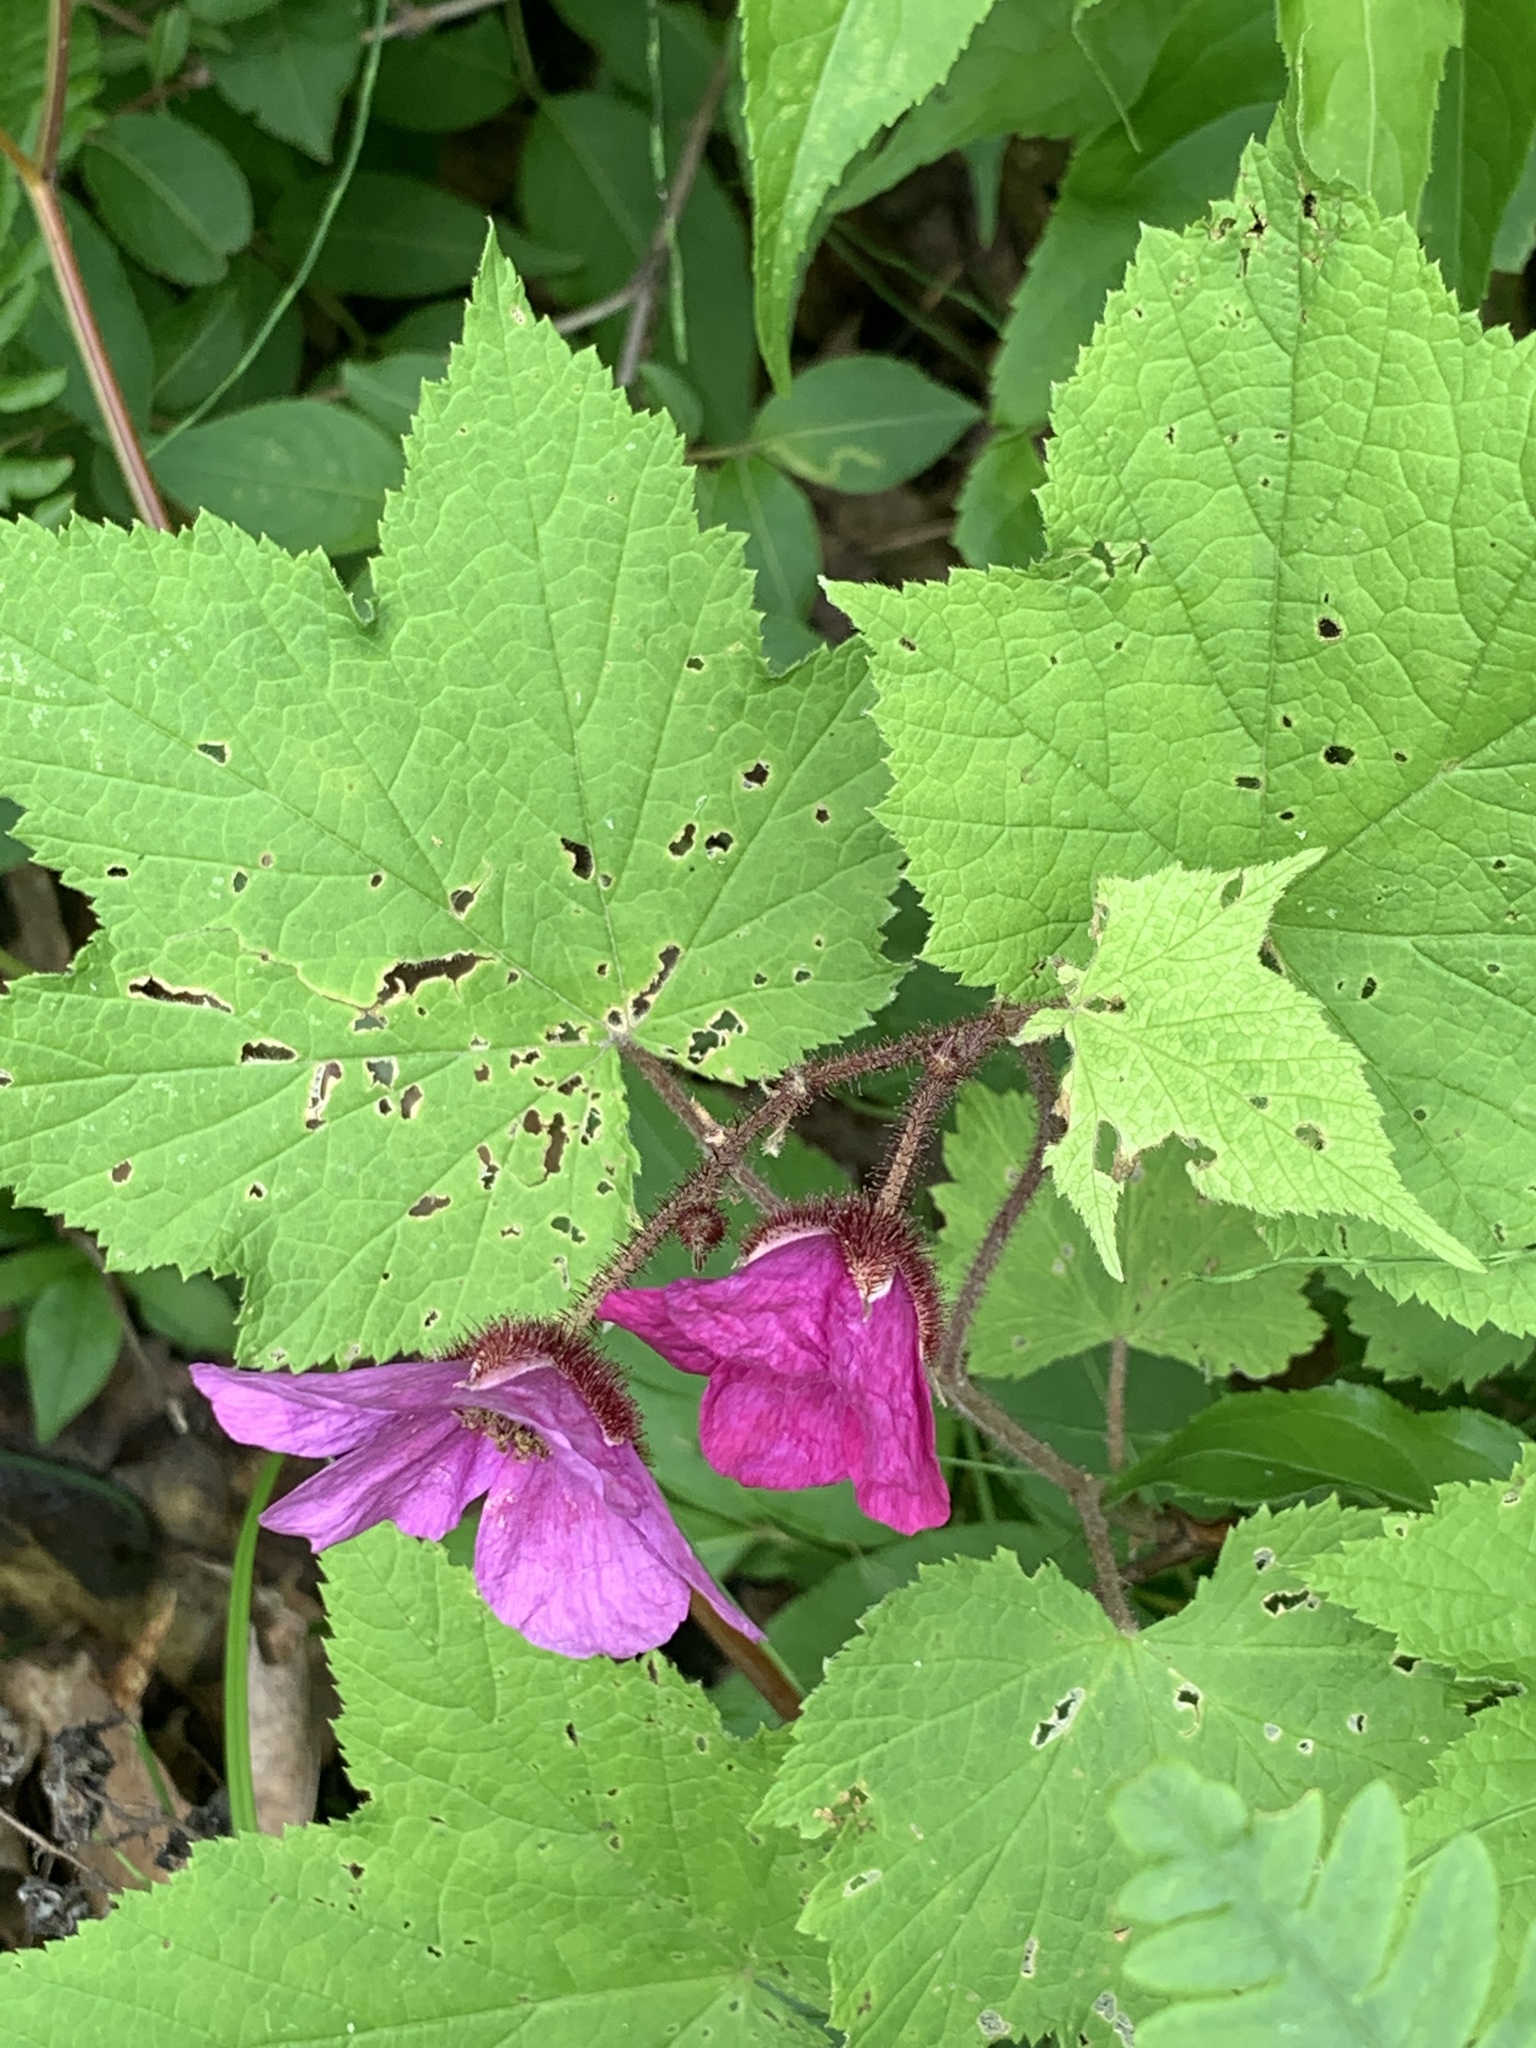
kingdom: Plantae
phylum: Tracheophyta
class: Magnoliopsida
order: Rosales
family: Rosaceae
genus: Rubus
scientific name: Rubus odoratus
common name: Purple-flowered raspberry
